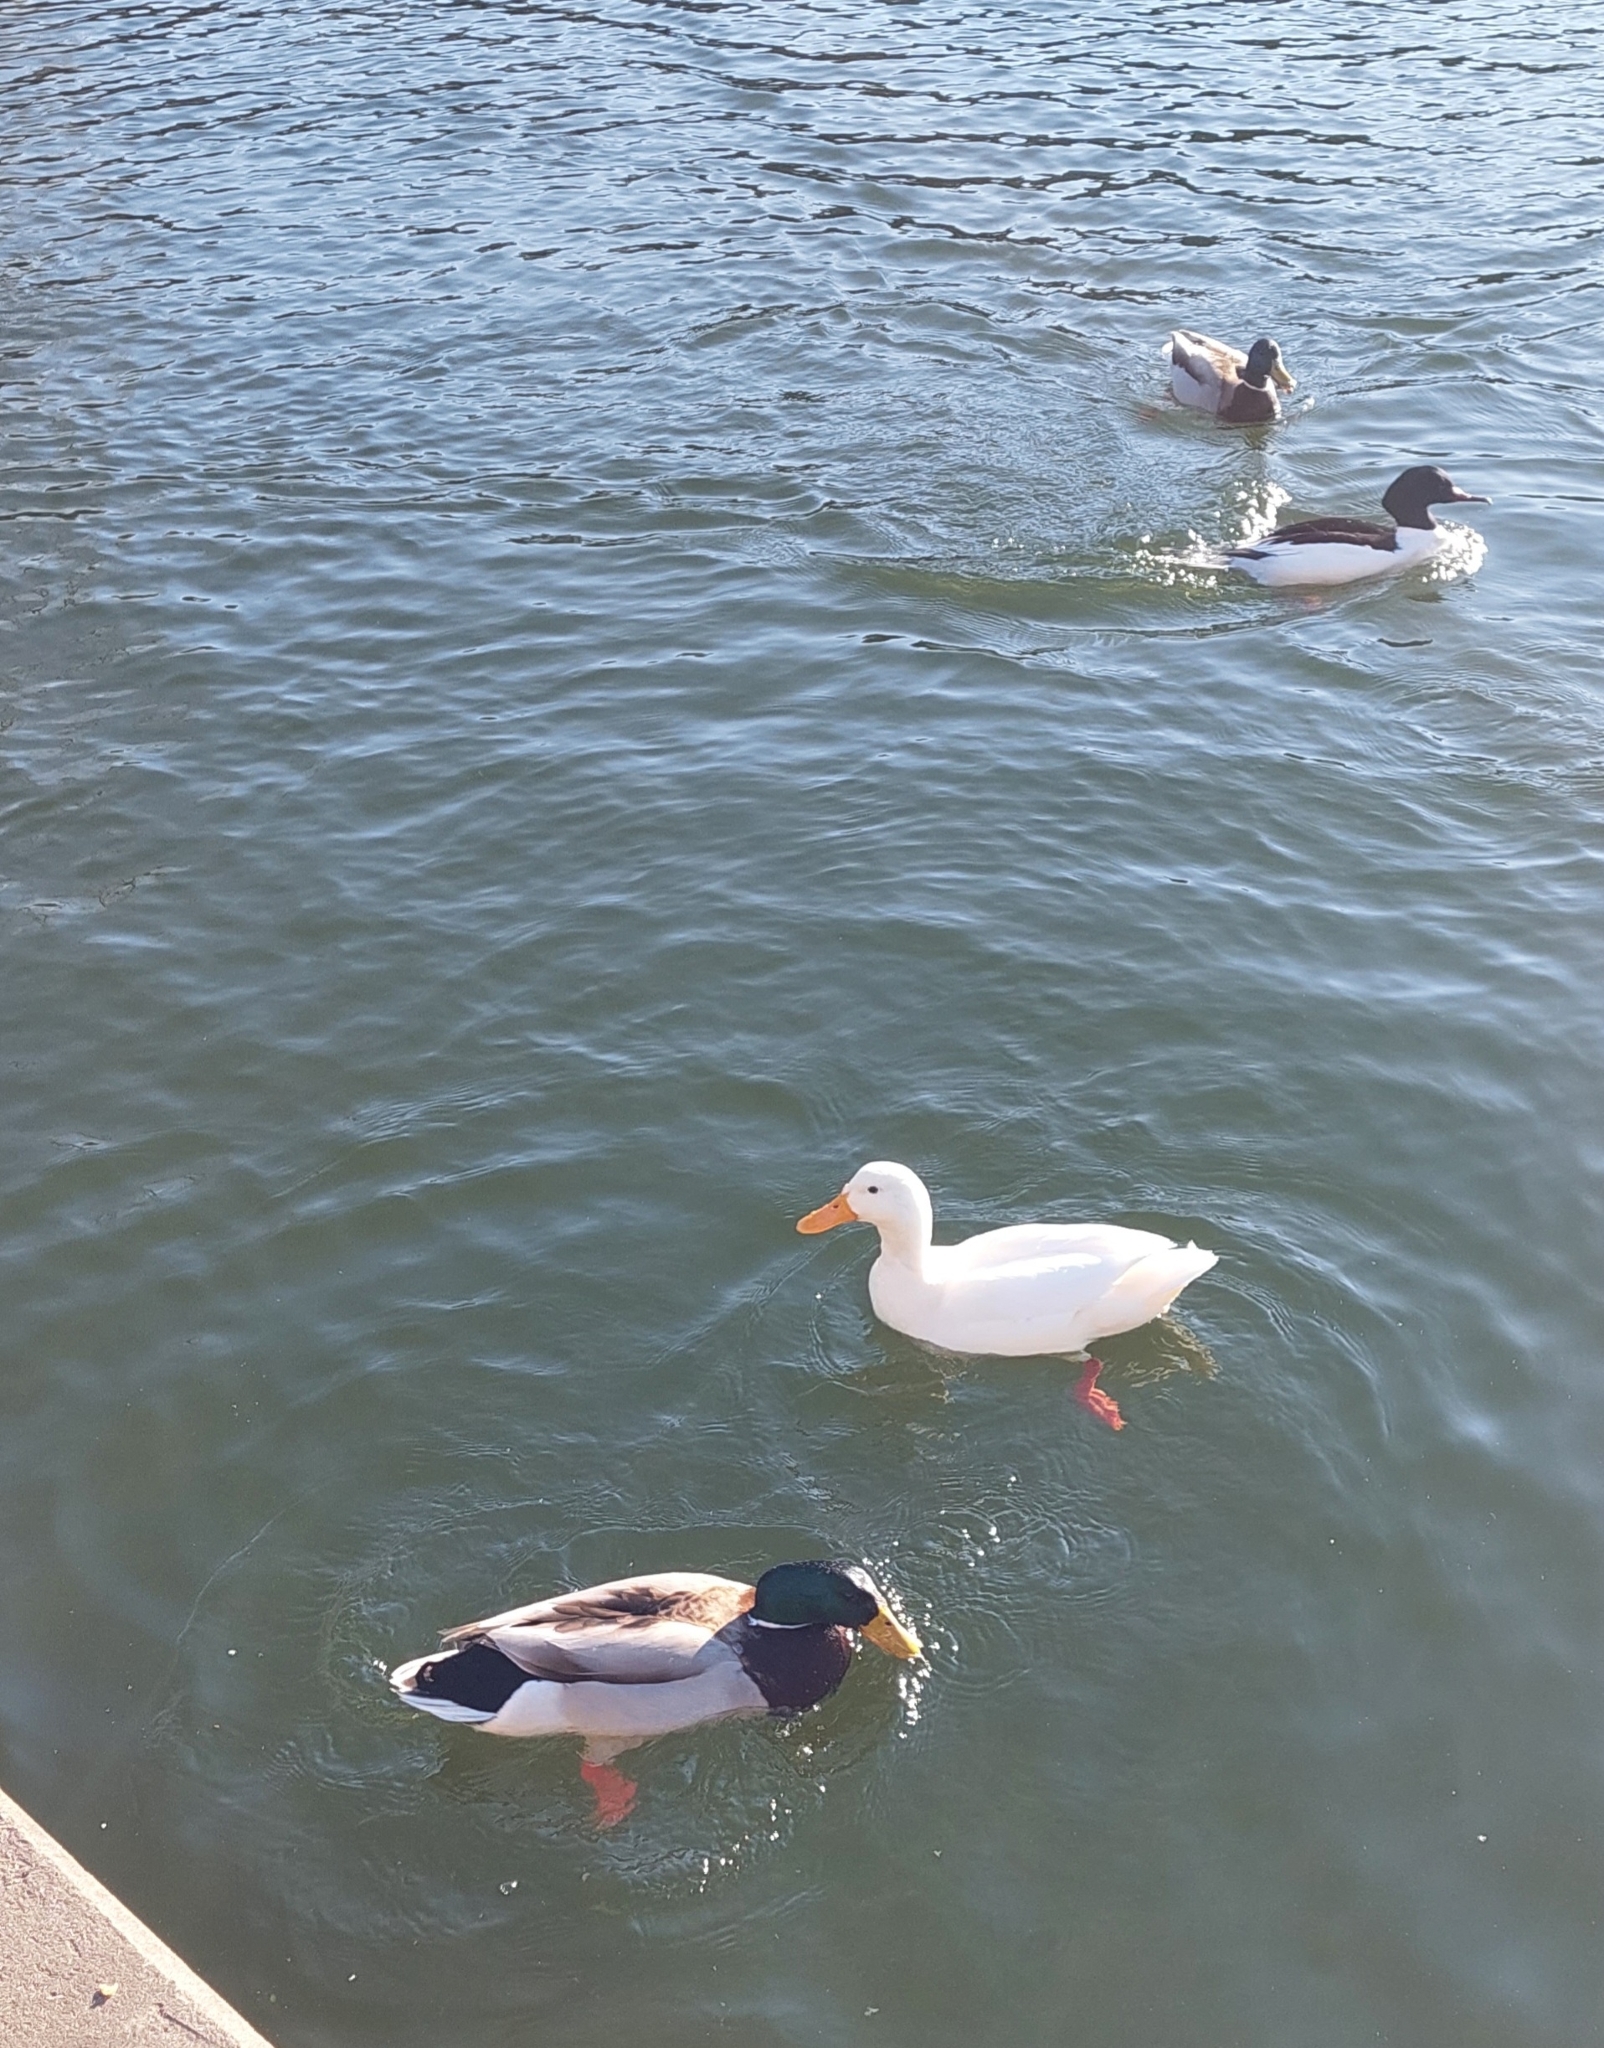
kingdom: Animalia
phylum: Chordata
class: Aves
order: Anseriformes
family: Anatidae
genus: Anas
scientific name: Anas platyrhynchos
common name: Mallard
